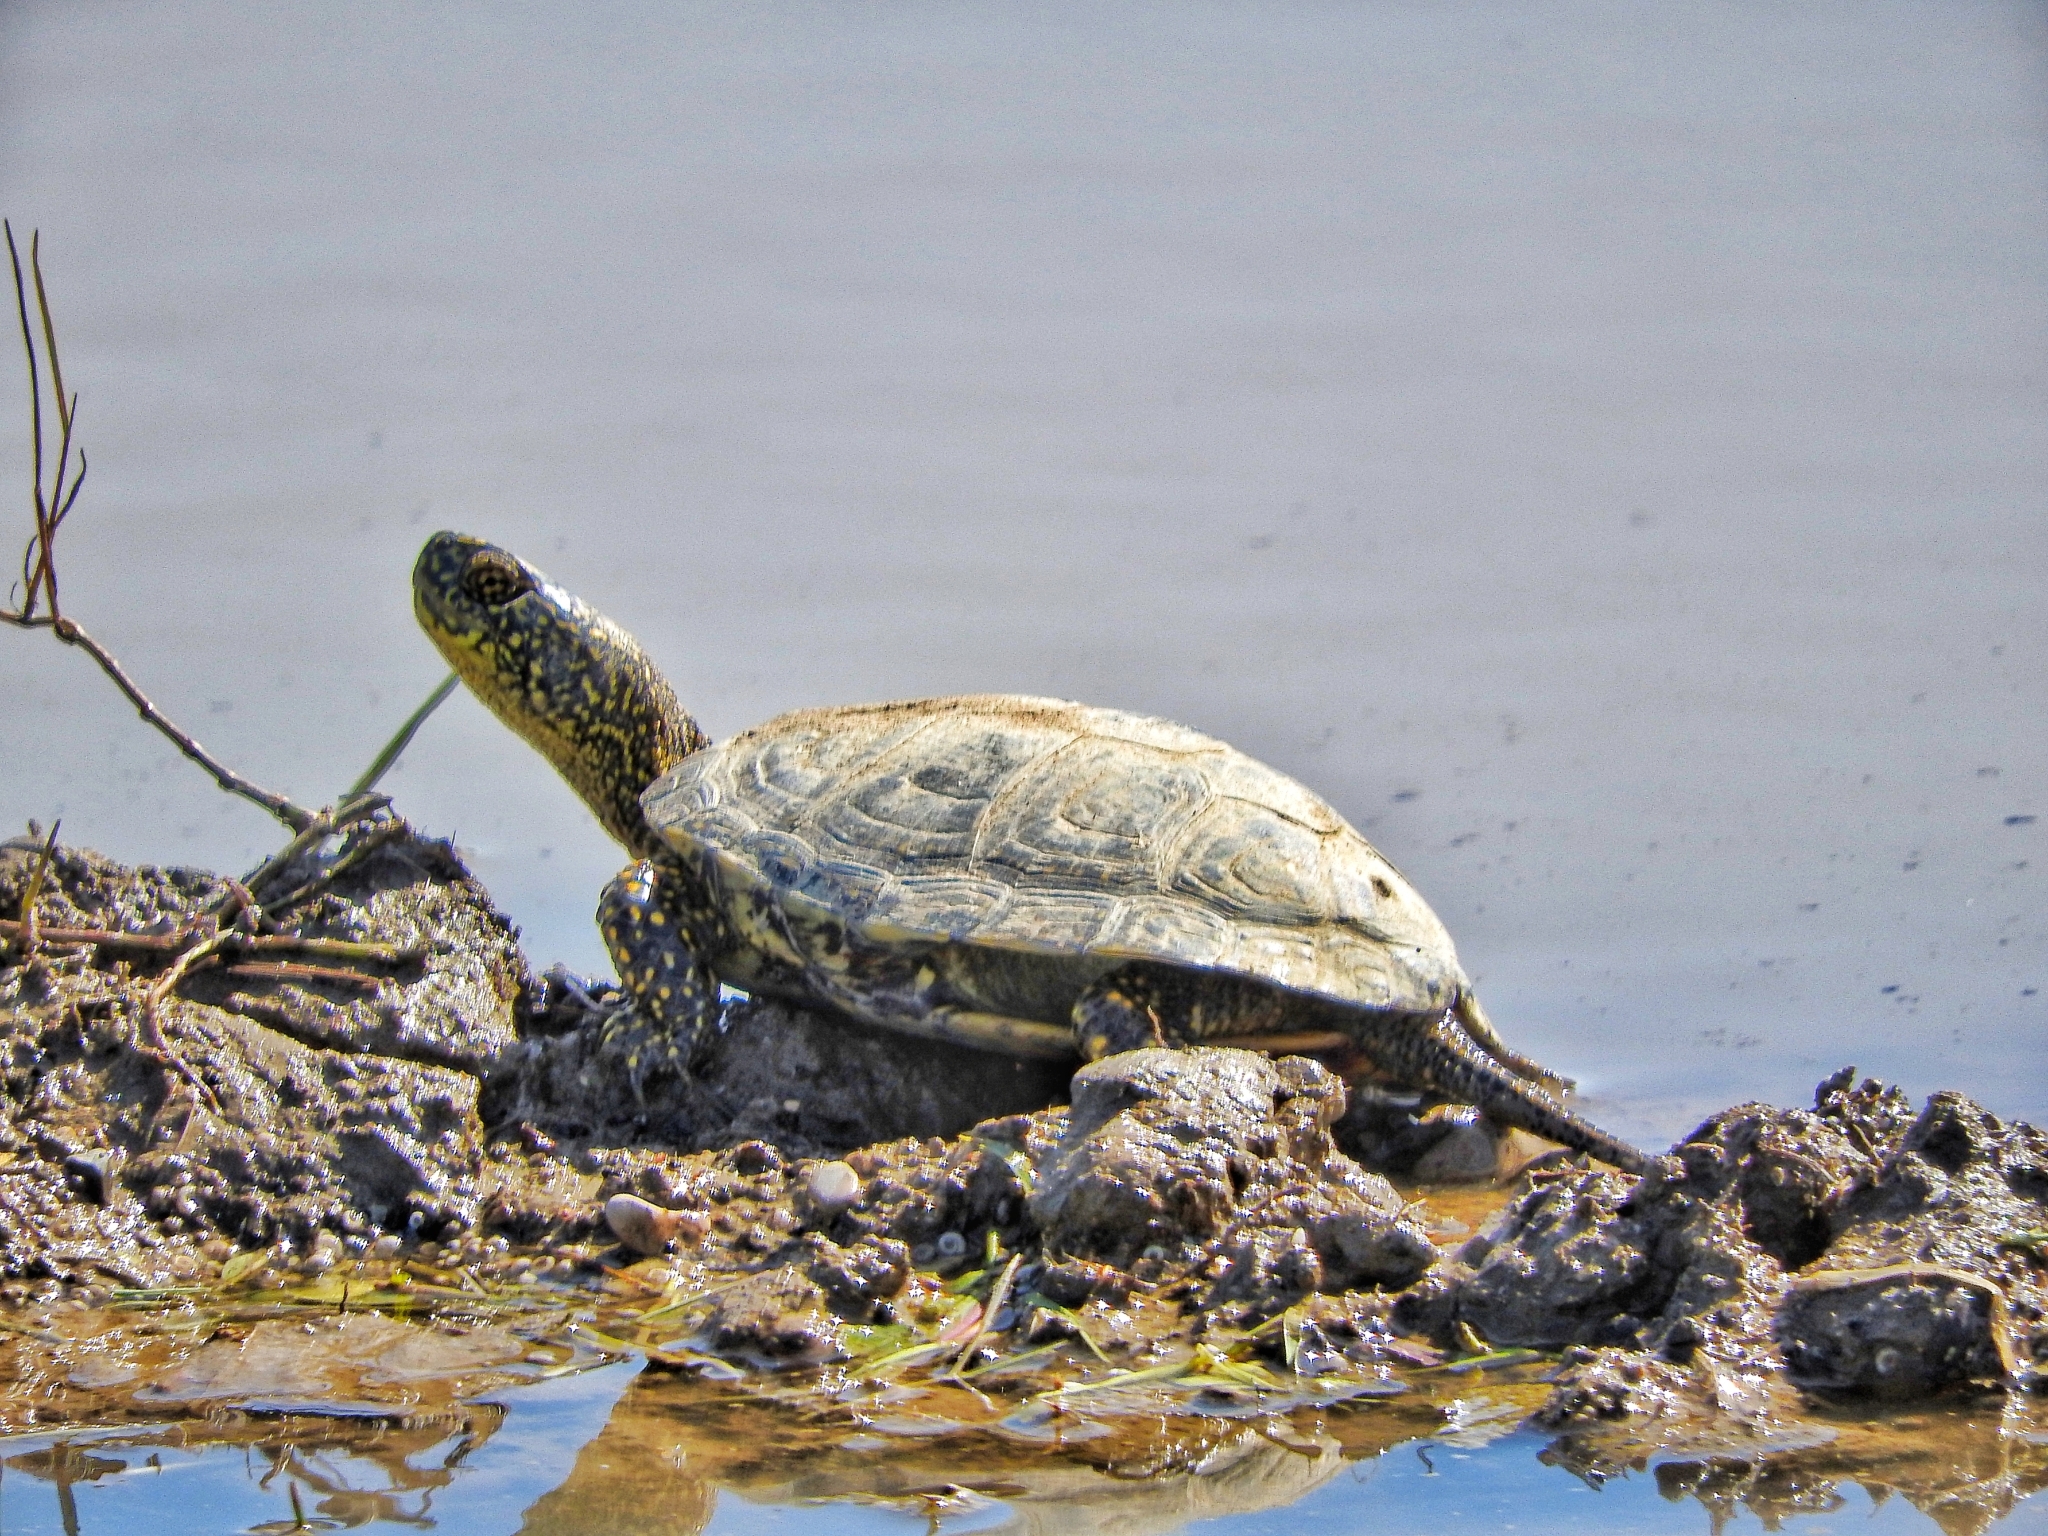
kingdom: Animalia
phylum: Chordata
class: Testudines
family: Emydidae
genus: Emys
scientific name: Emys orbicularis
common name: European pond turtle
